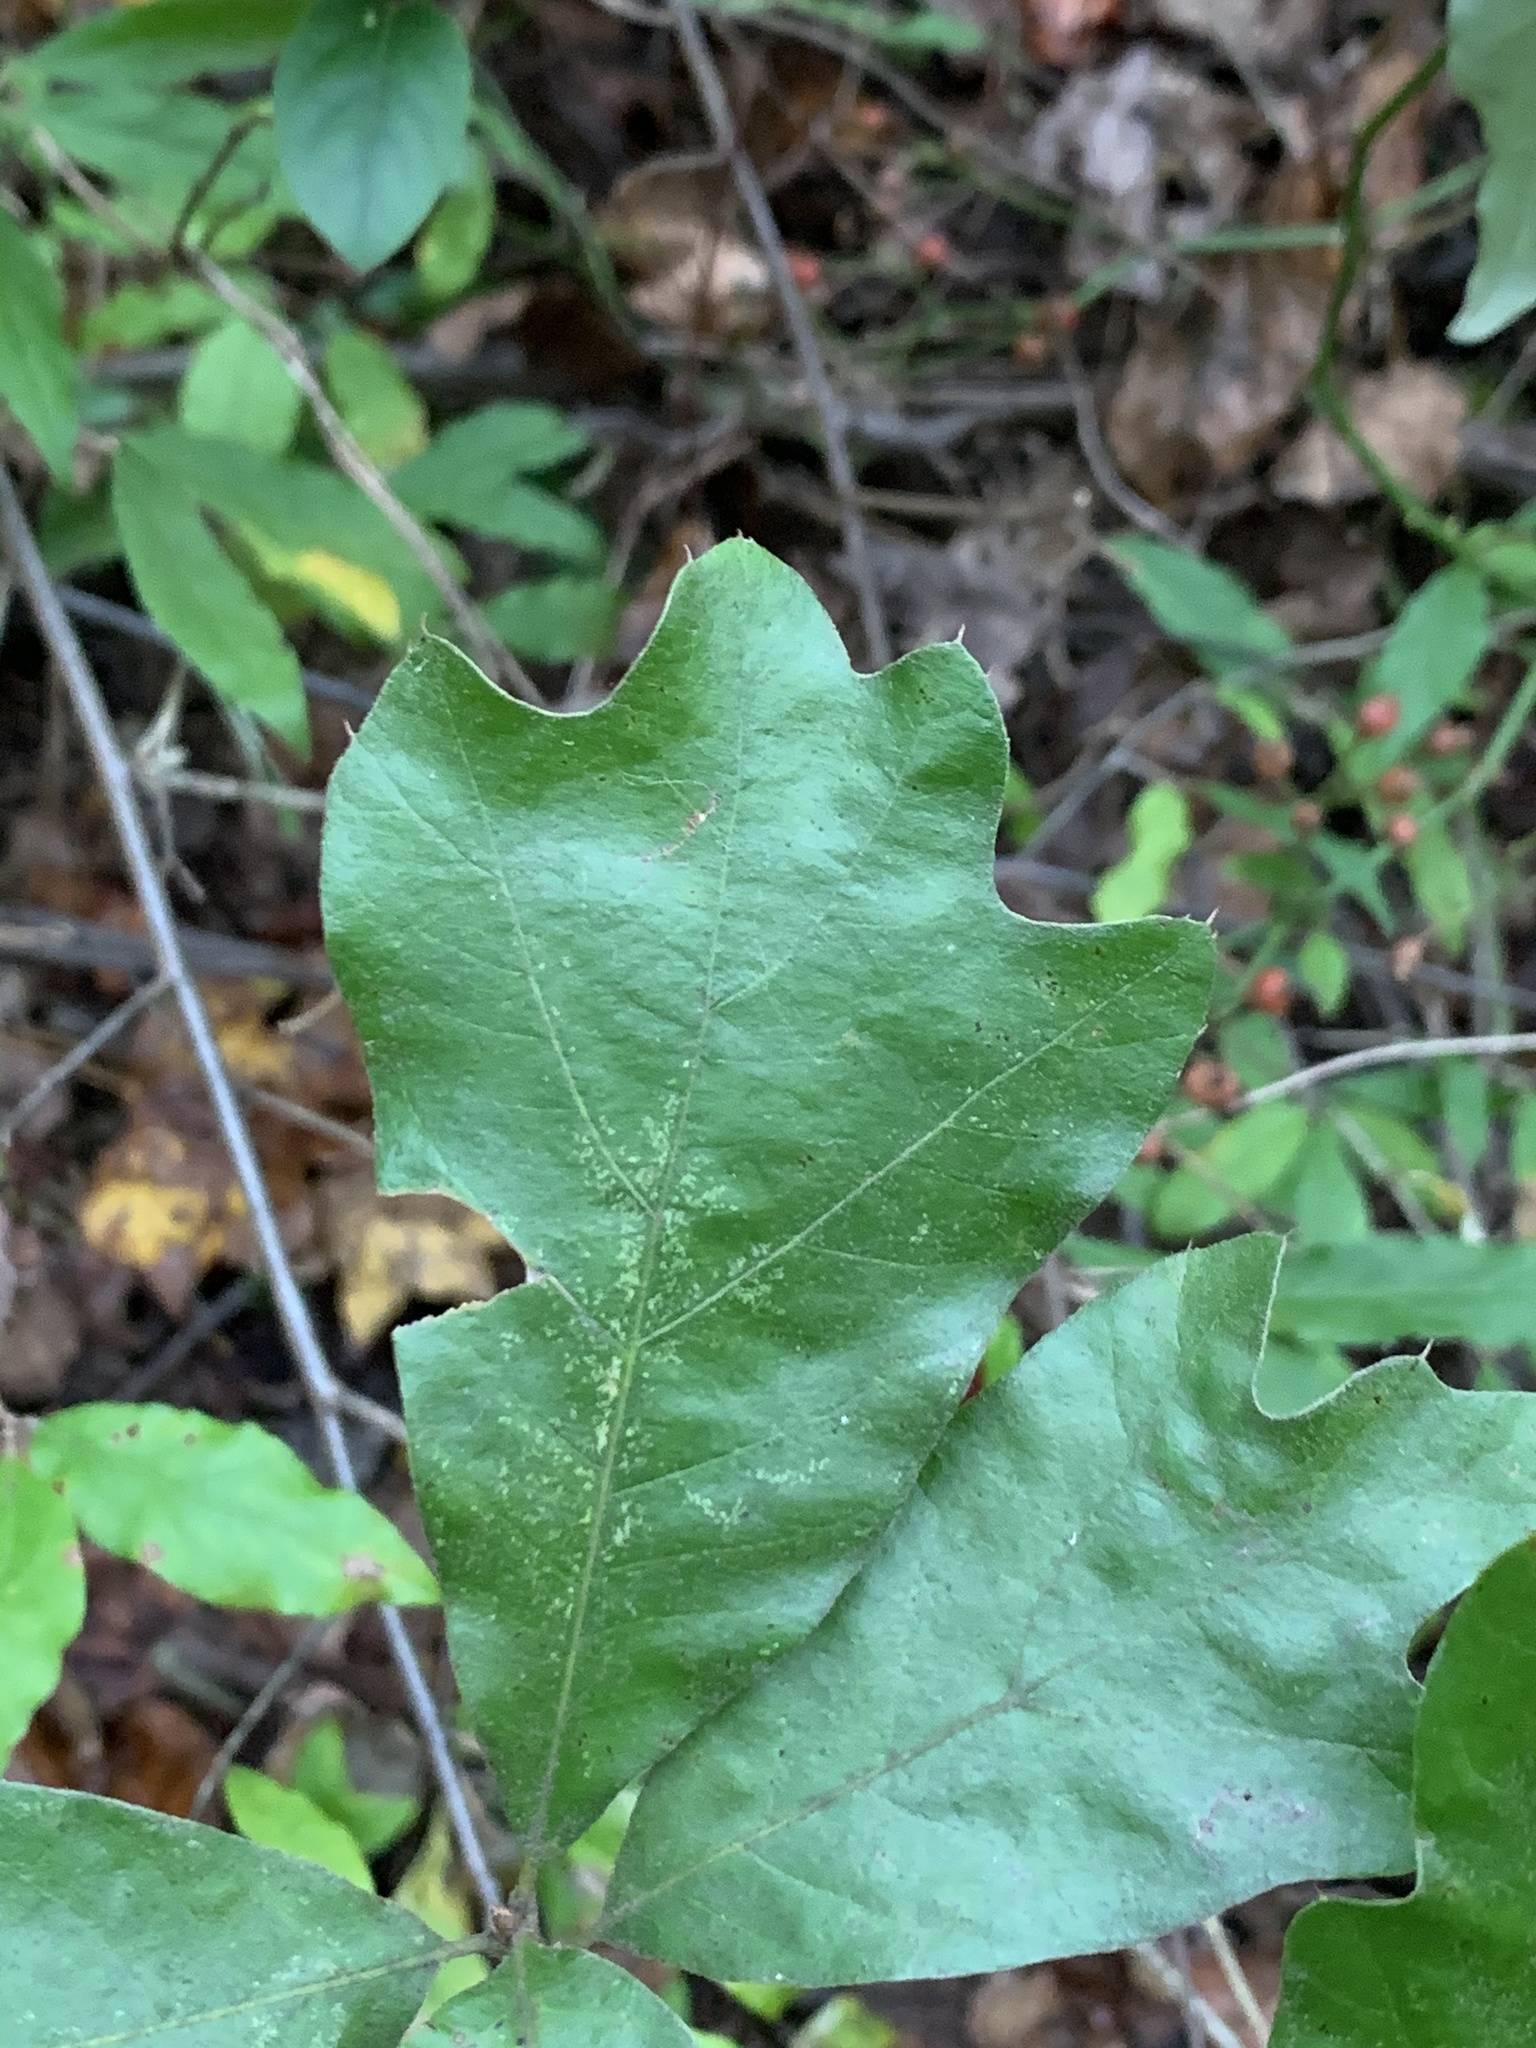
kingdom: Plantae
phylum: Tracheophyta
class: Magnoliopsida
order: Fagales
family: Fagaceae
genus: Quercus
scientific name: Quercus falcata
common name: Southern red oak
